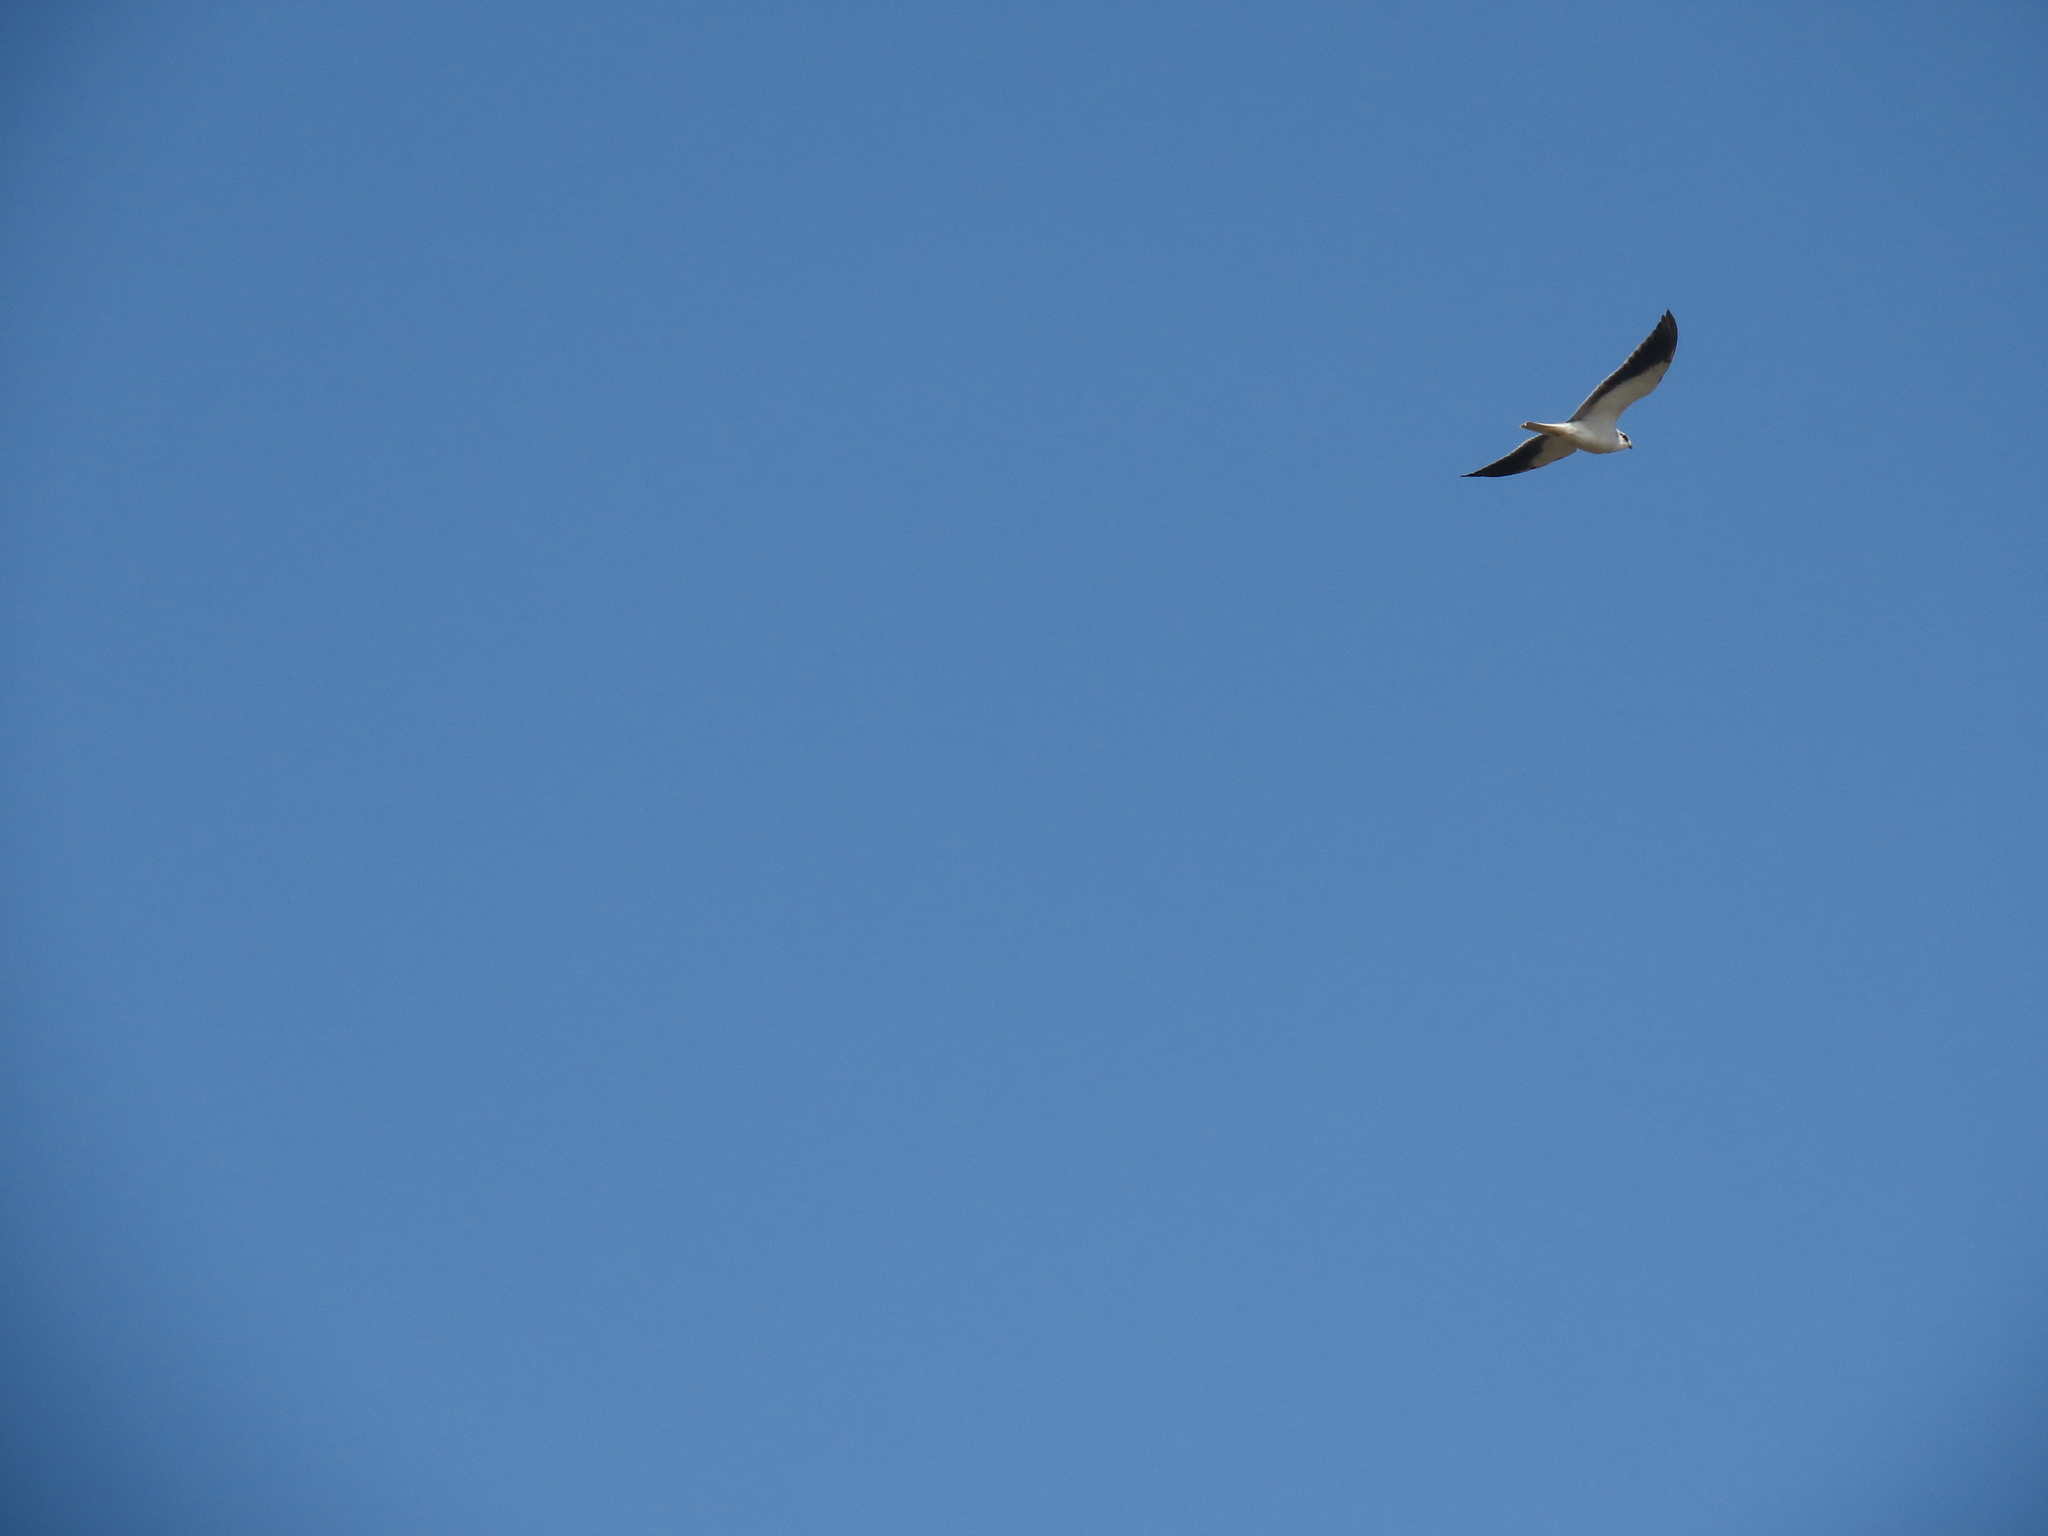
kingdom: Animalia
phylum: Chordata
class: Aves
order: Accipitriformes
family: Accipitridae
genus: Elanus
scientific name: Elanus caeruleus
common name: Black-winged kite
